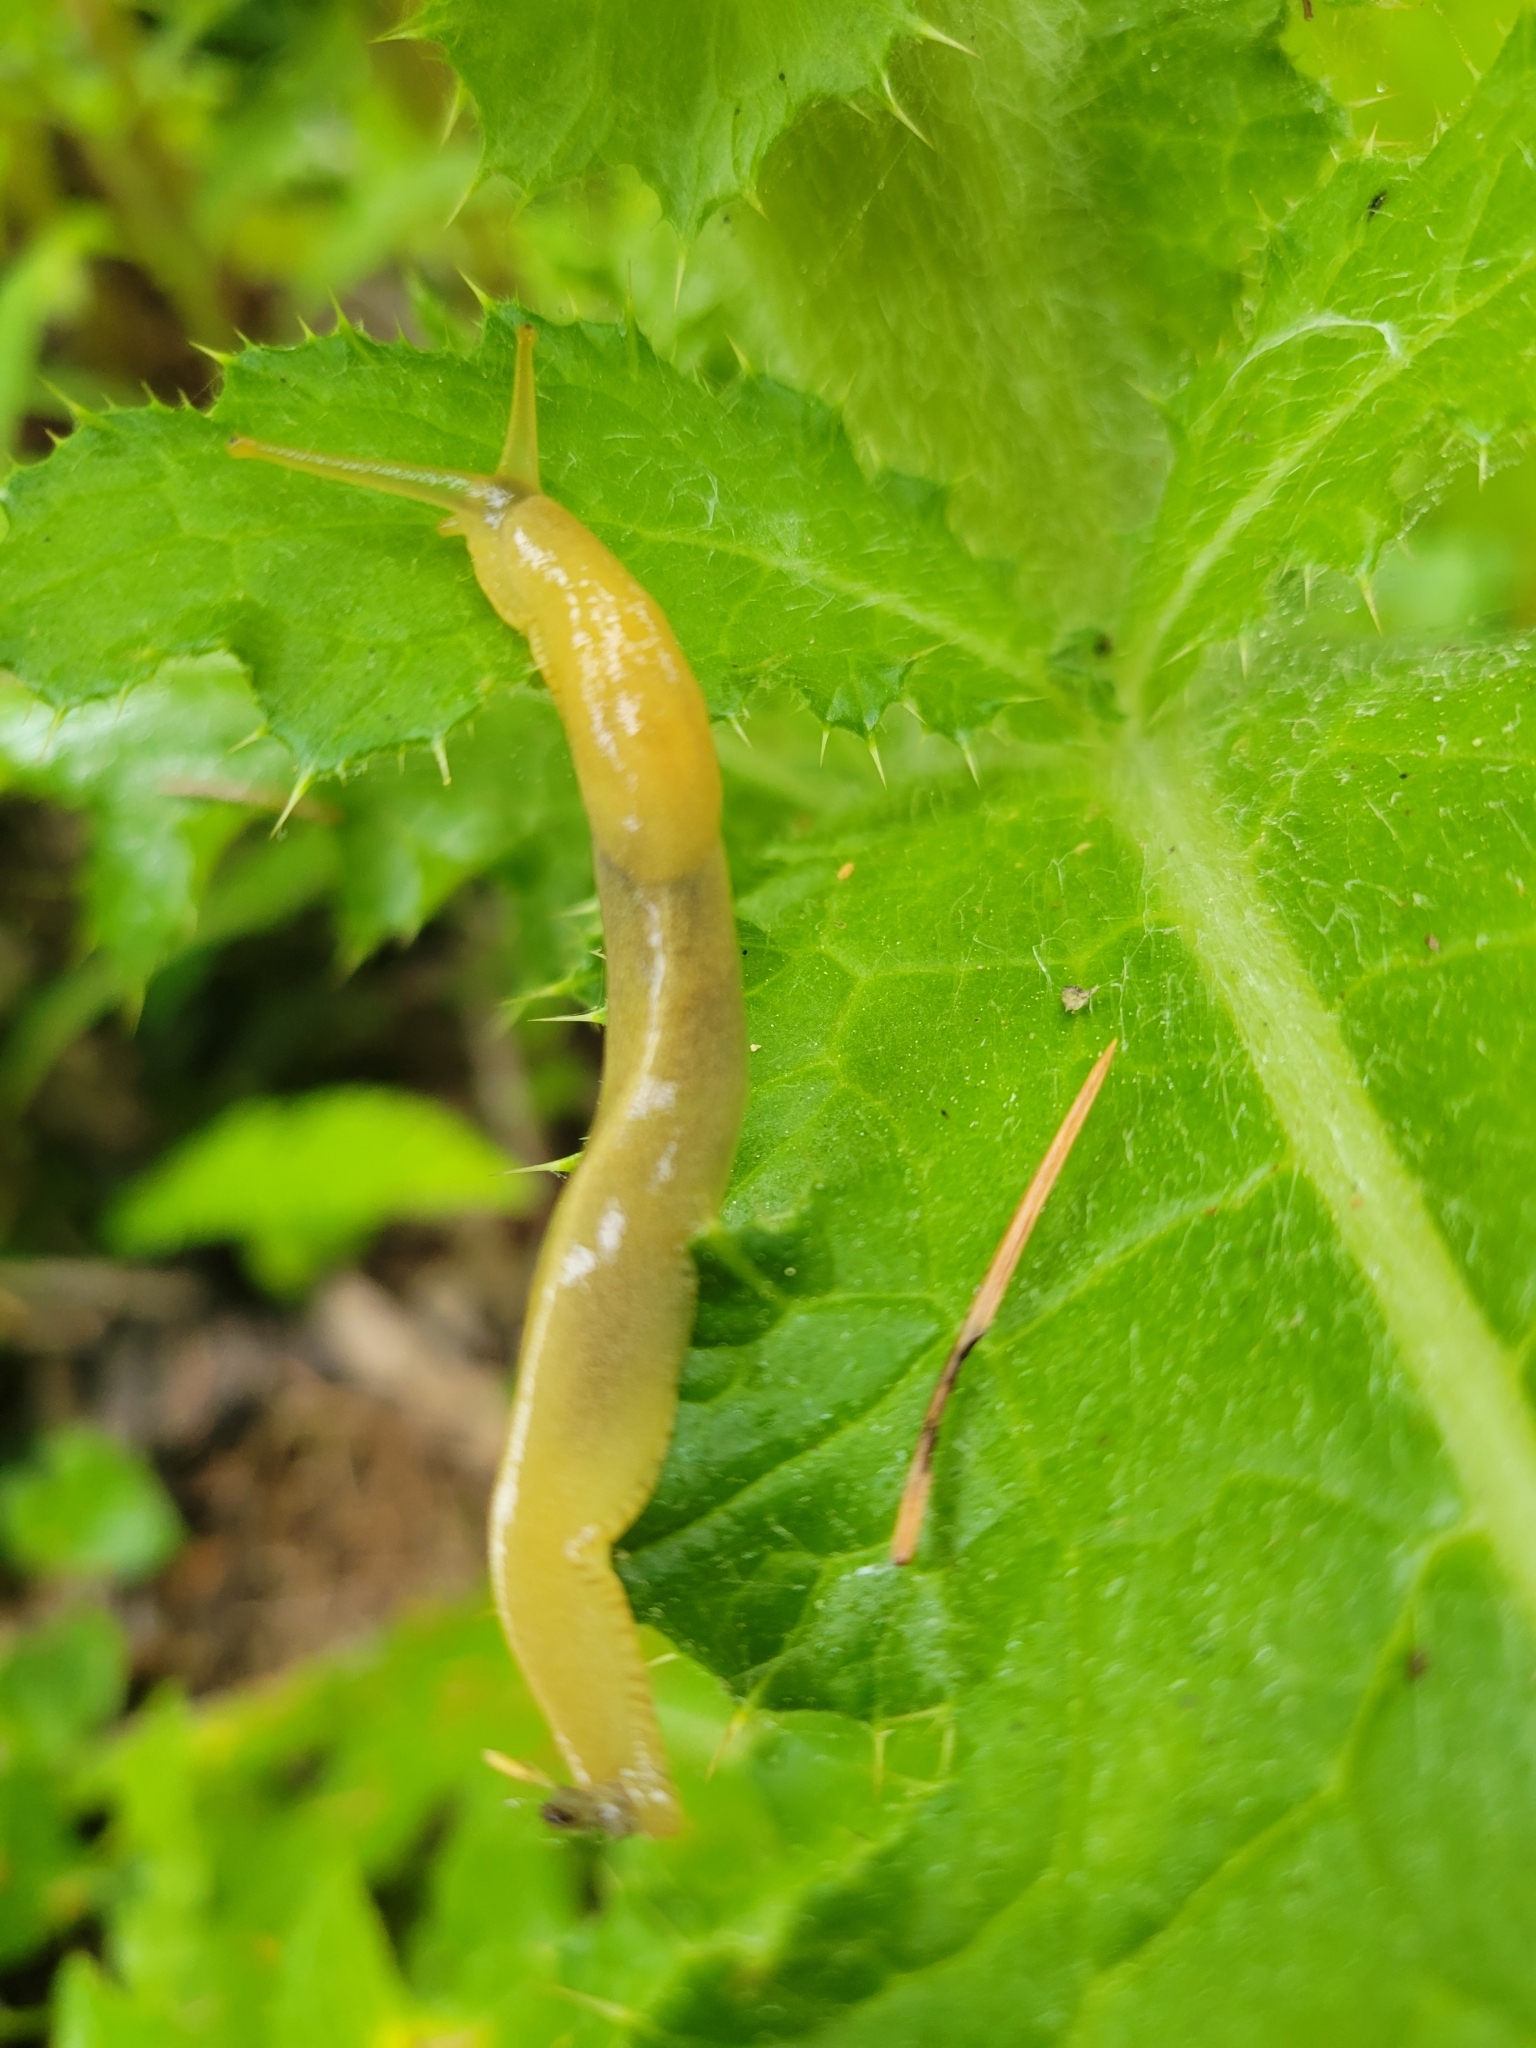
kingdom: Animalia
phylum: Mollusca
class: Gastropoda
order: Stylommatophora
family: Ariolimacidae
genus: Ariolimax
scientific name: Ariolimax columbianus
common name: Pacific banana slug
